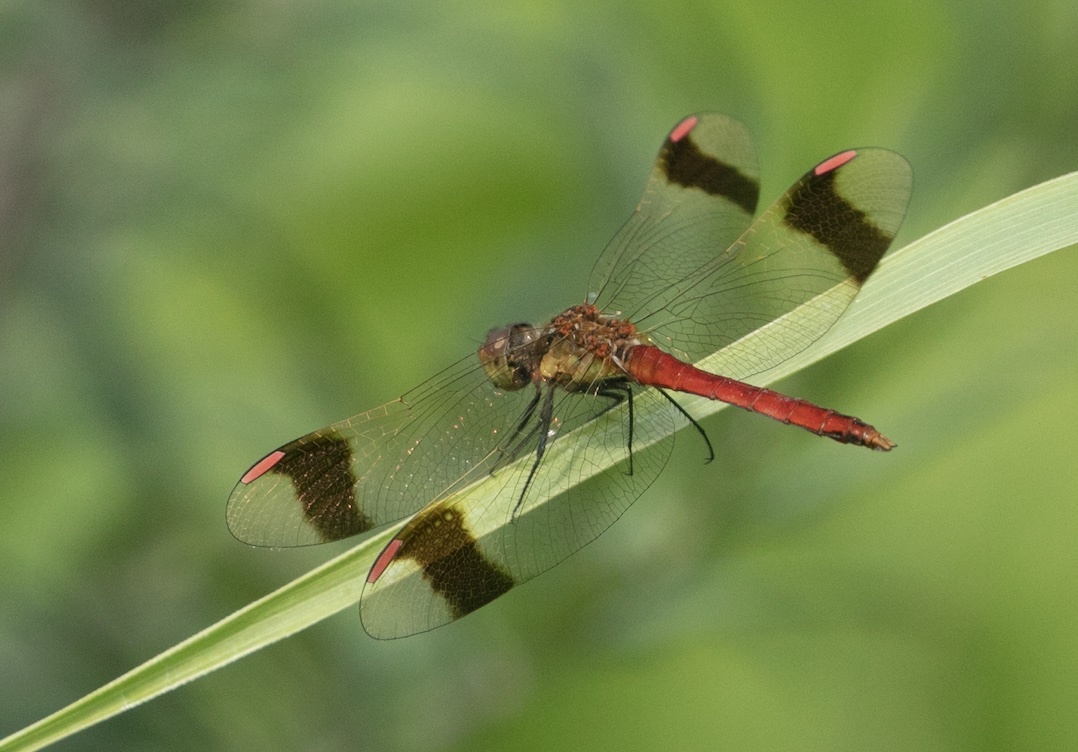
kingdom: Animalia
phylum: Arthropoda
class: Insecta
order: Odonata
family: Libellulidae
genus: Sympetrum
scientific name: Sympetrum pedemontanum
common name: Banded darter
